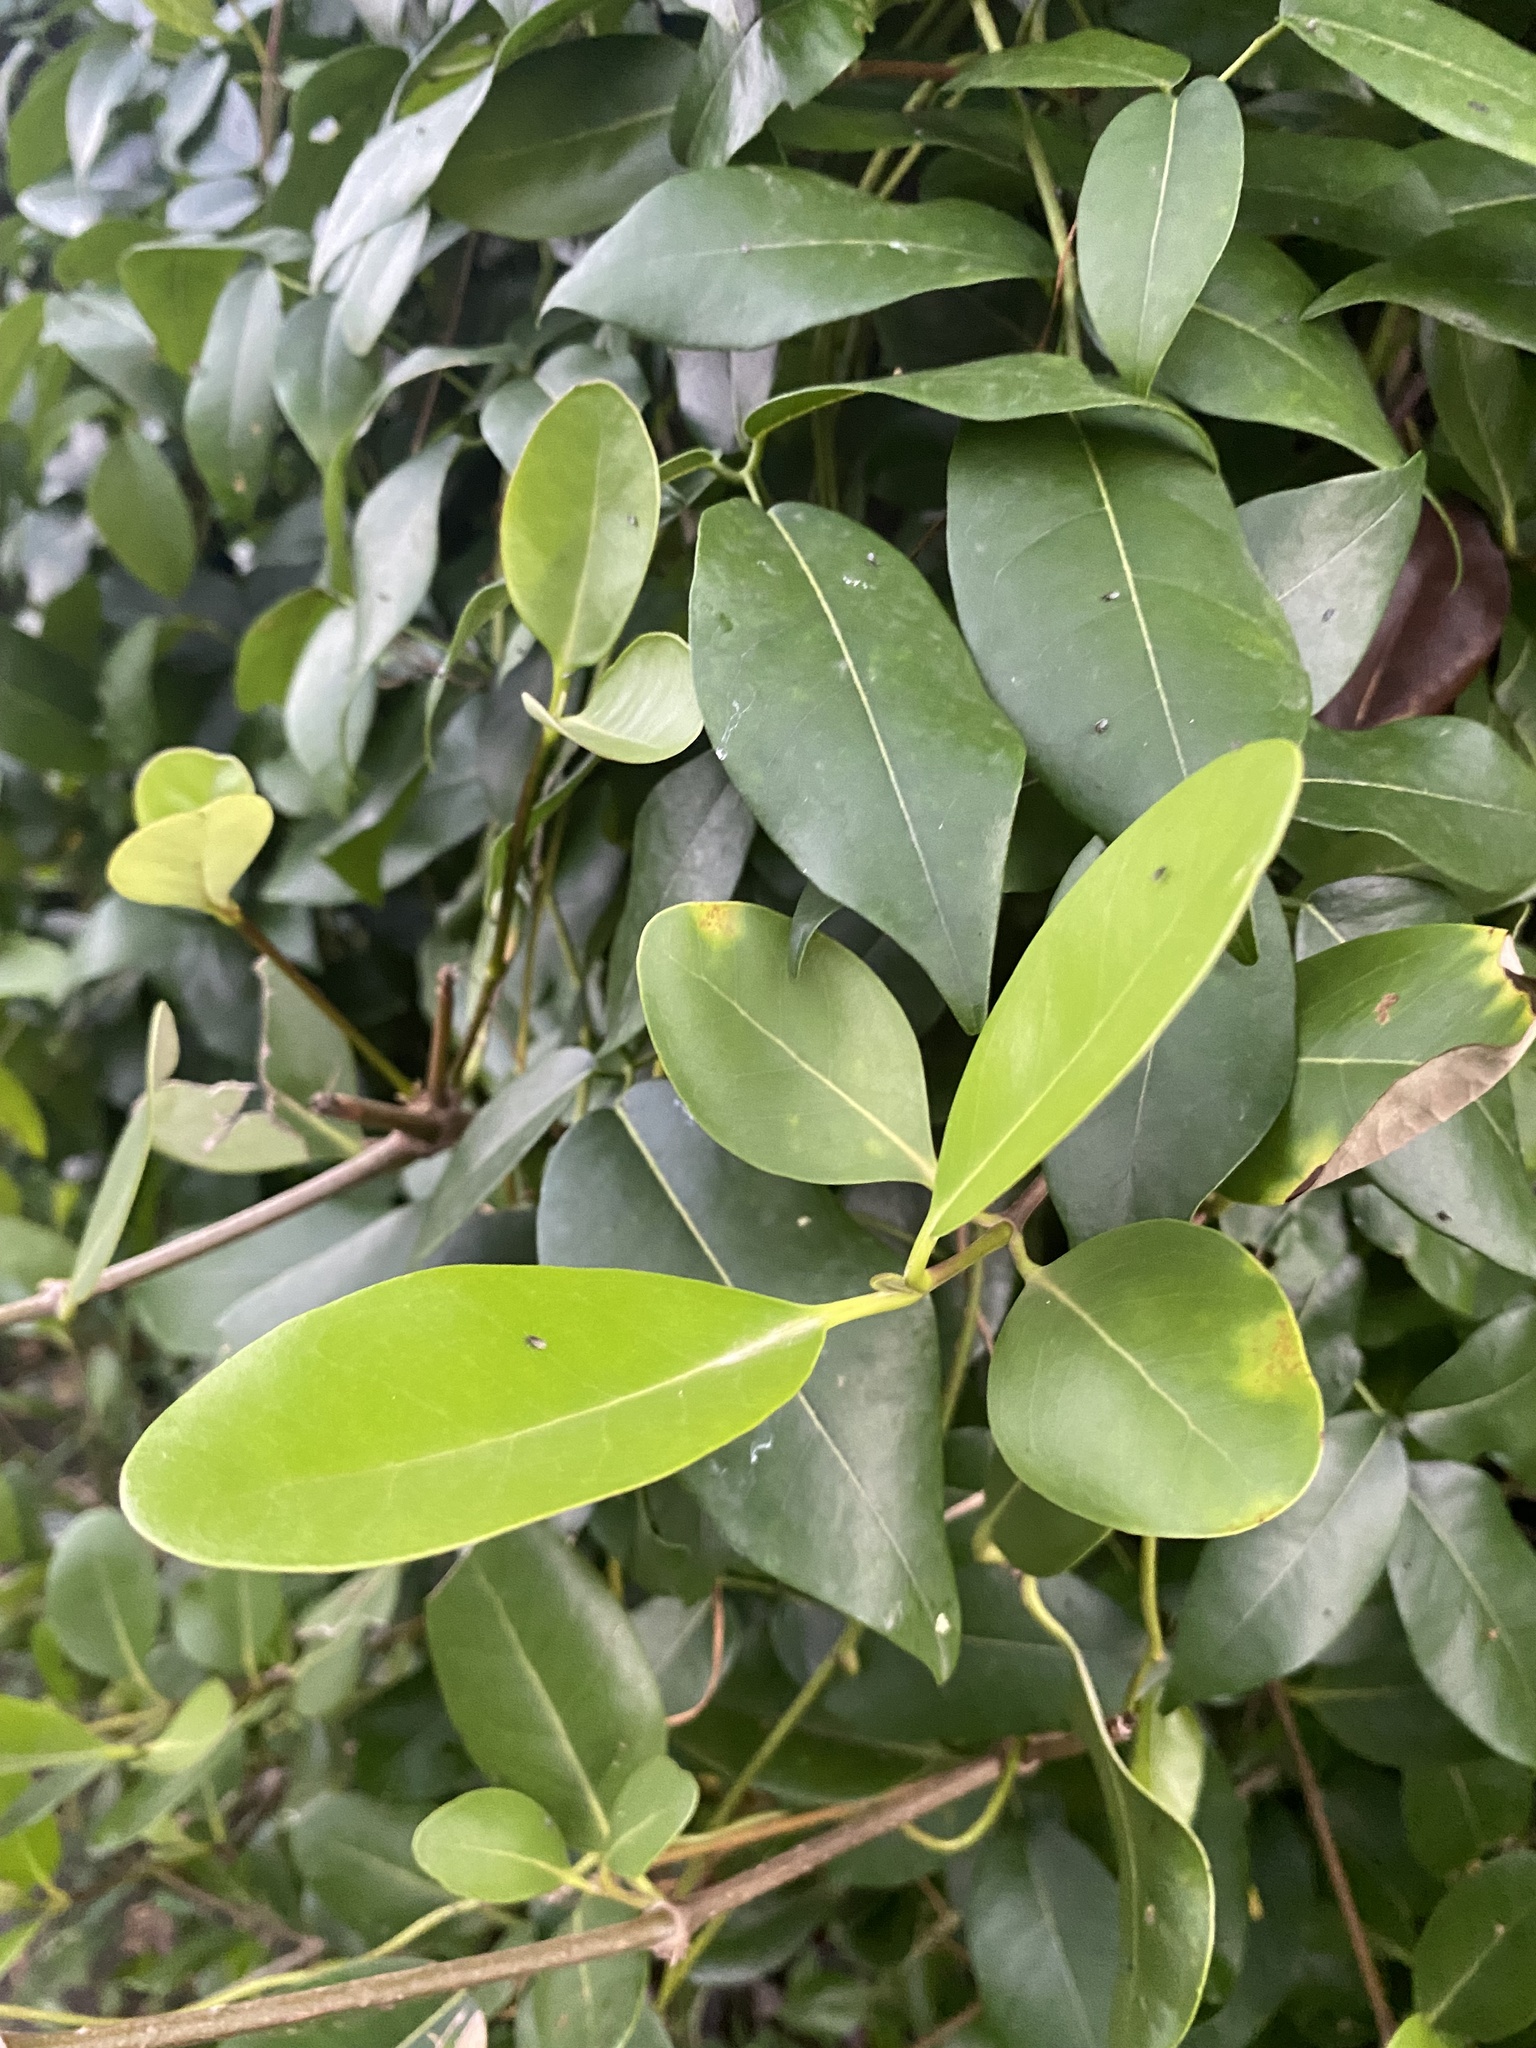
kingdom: Plantae
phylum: Tracheophyta
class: Magnoliopsida
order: Fabales
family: Fabaceae
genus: Derris
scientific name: Derris trifoliata
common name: Three-leaf derris
